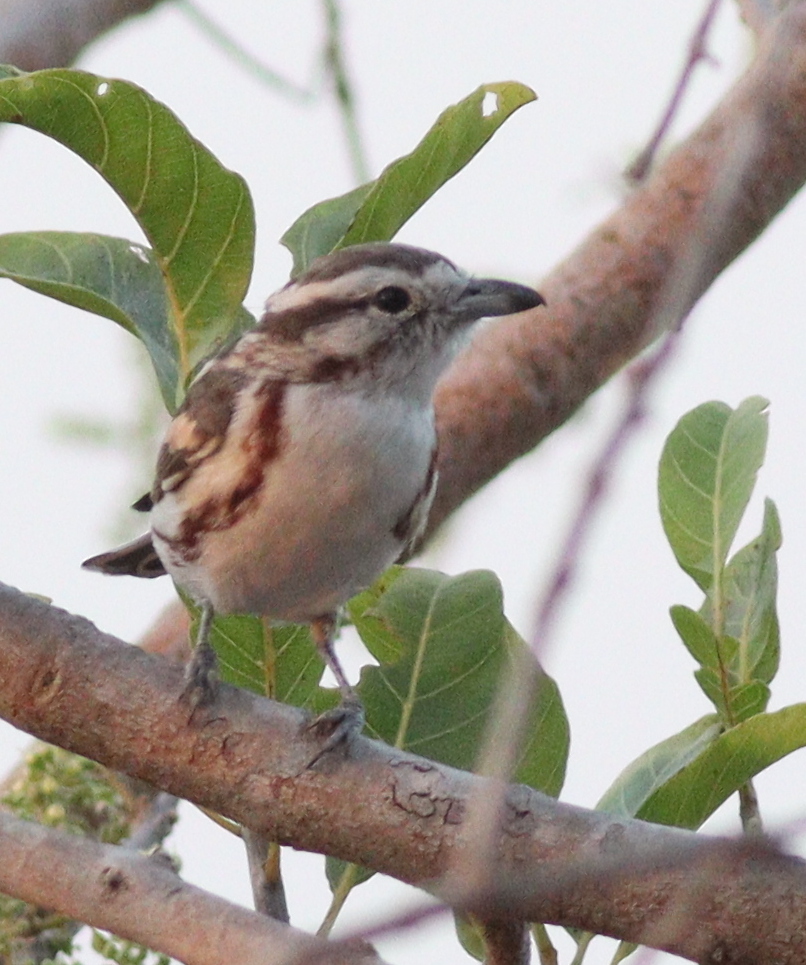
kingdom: Animalia
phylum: Chordata
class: Aves
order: Passeriformes
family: Malaconotidae
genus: Nilaus
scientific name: Nilaus afer
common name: Brubru
